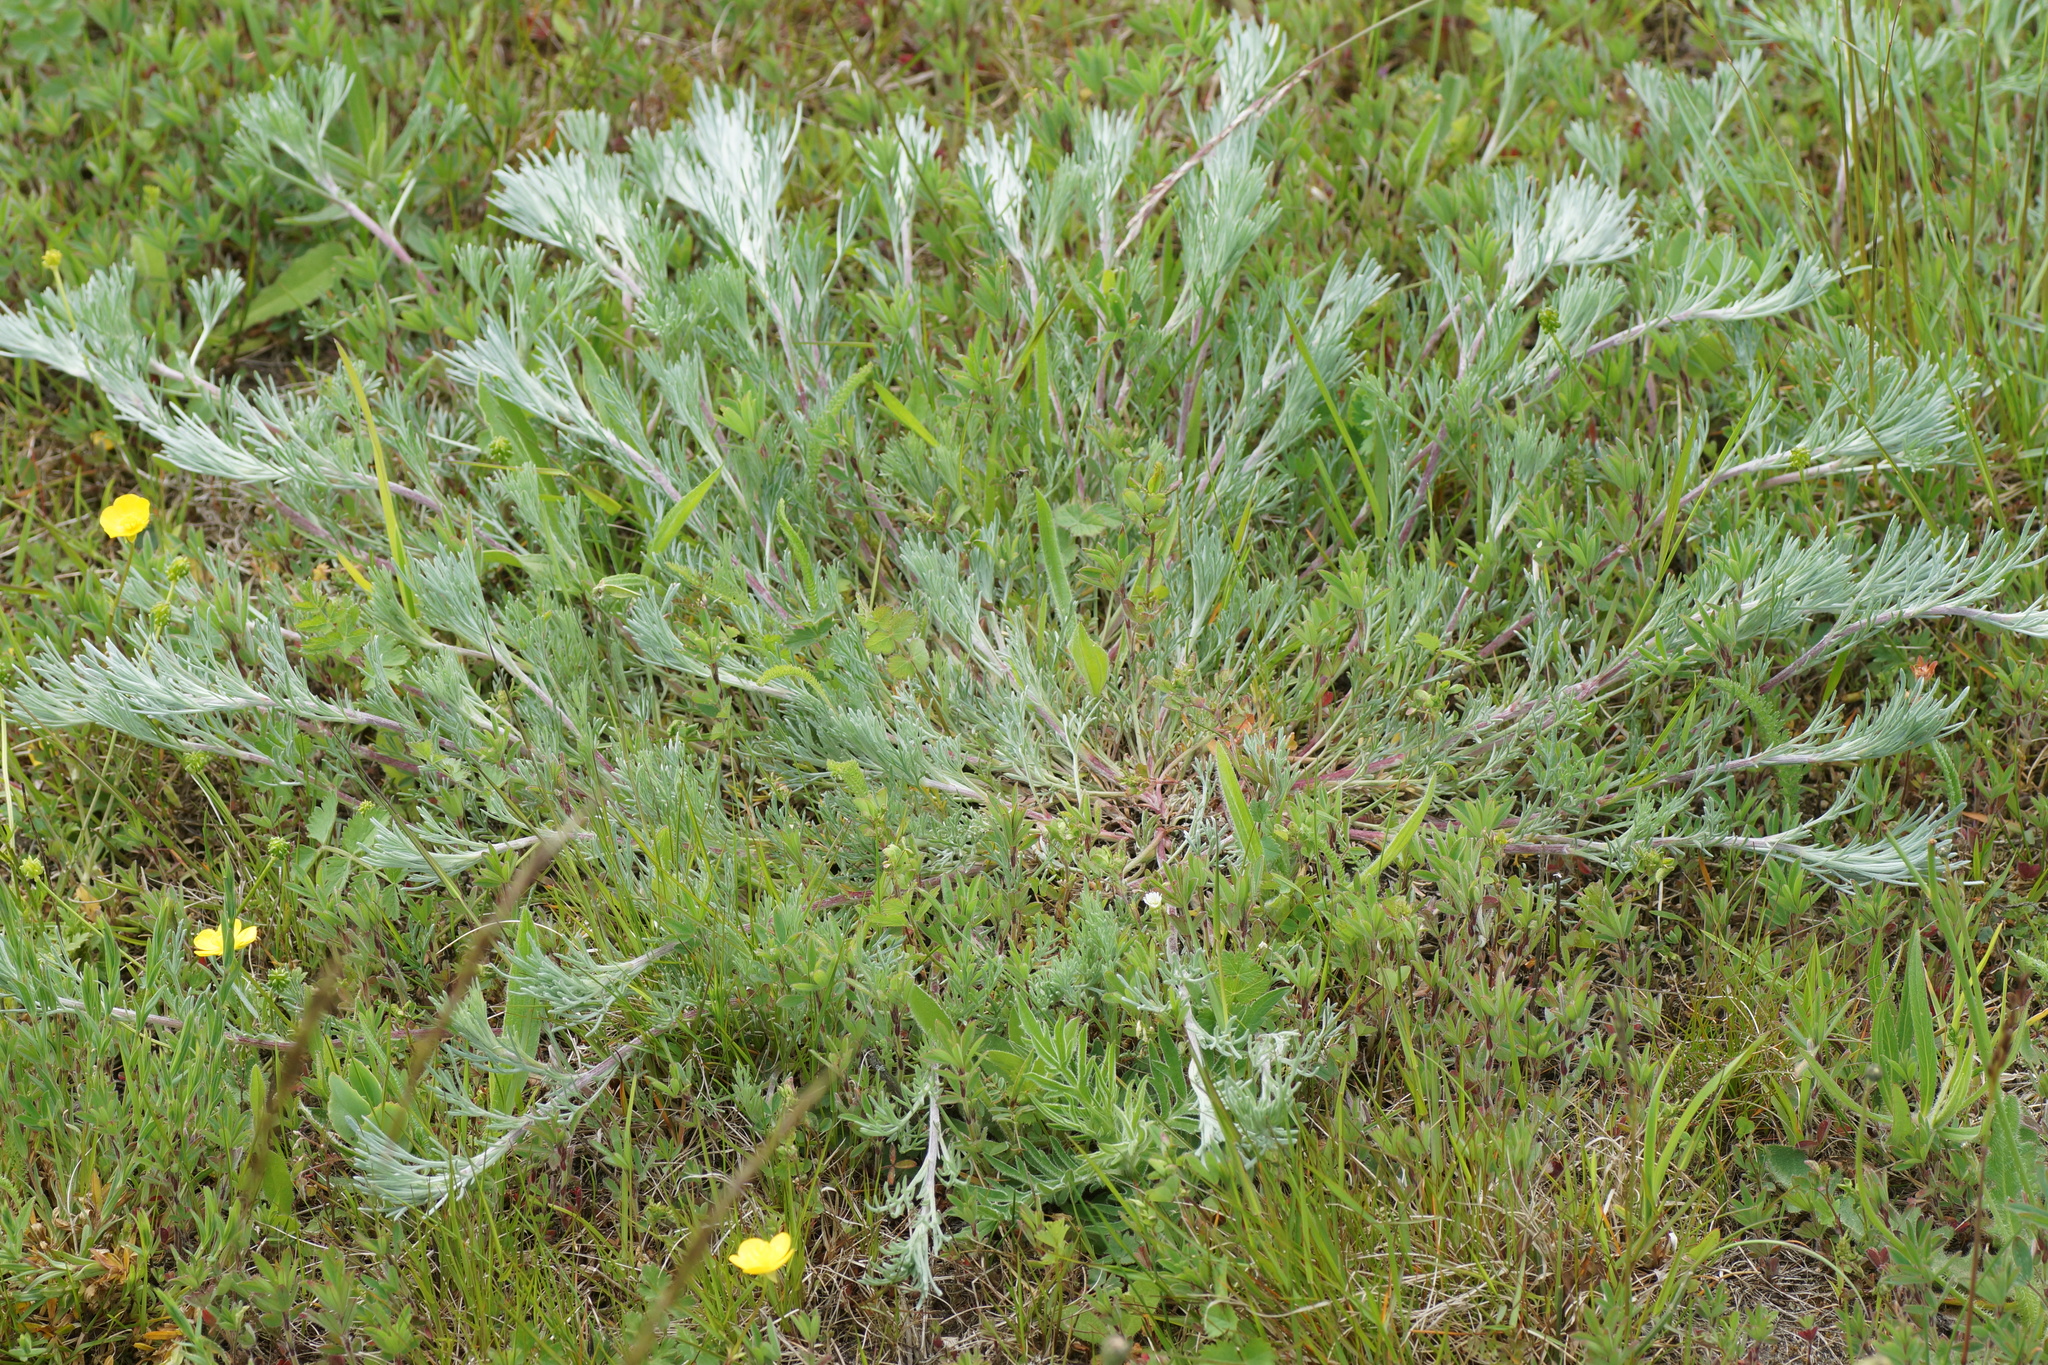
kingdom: Plantae
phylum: Tracheophyta
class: Magnoliopsida
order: Asterales
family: Asteraceae
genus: Artemisia
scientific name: Artemisia campestris
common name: Field wormwood
